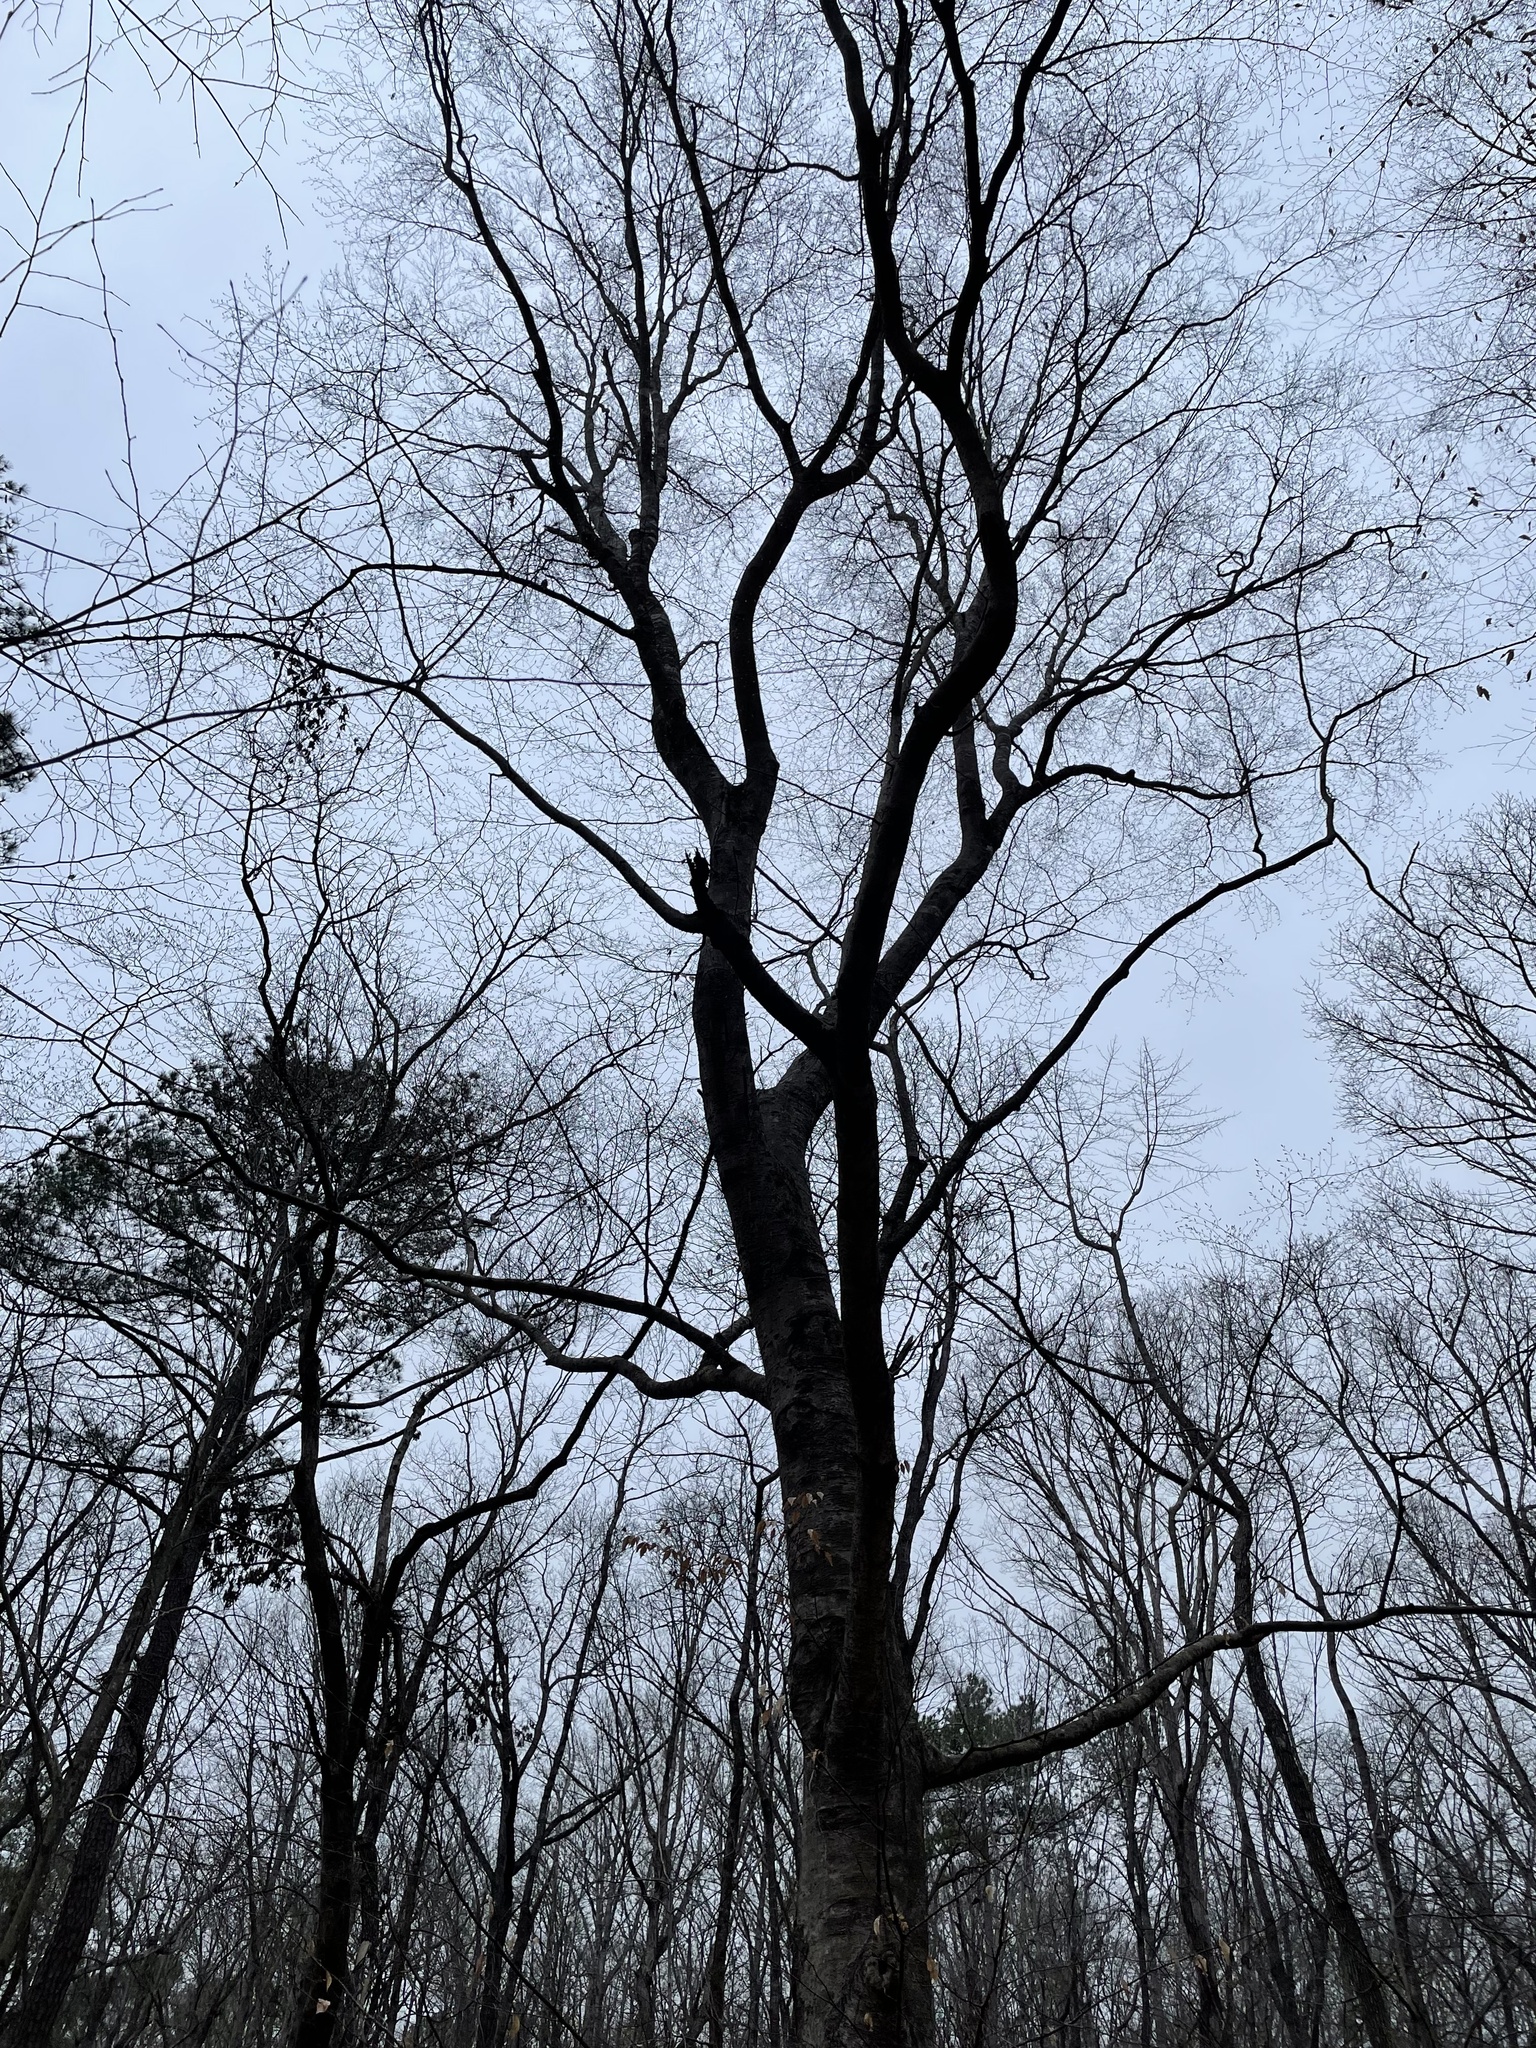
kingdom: Plantae
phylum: Tracheophyta
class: Magnoliopsida
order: Fagales
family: Fagaceae
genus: Fagus
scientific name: Fagus grandifolia
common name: American beech
